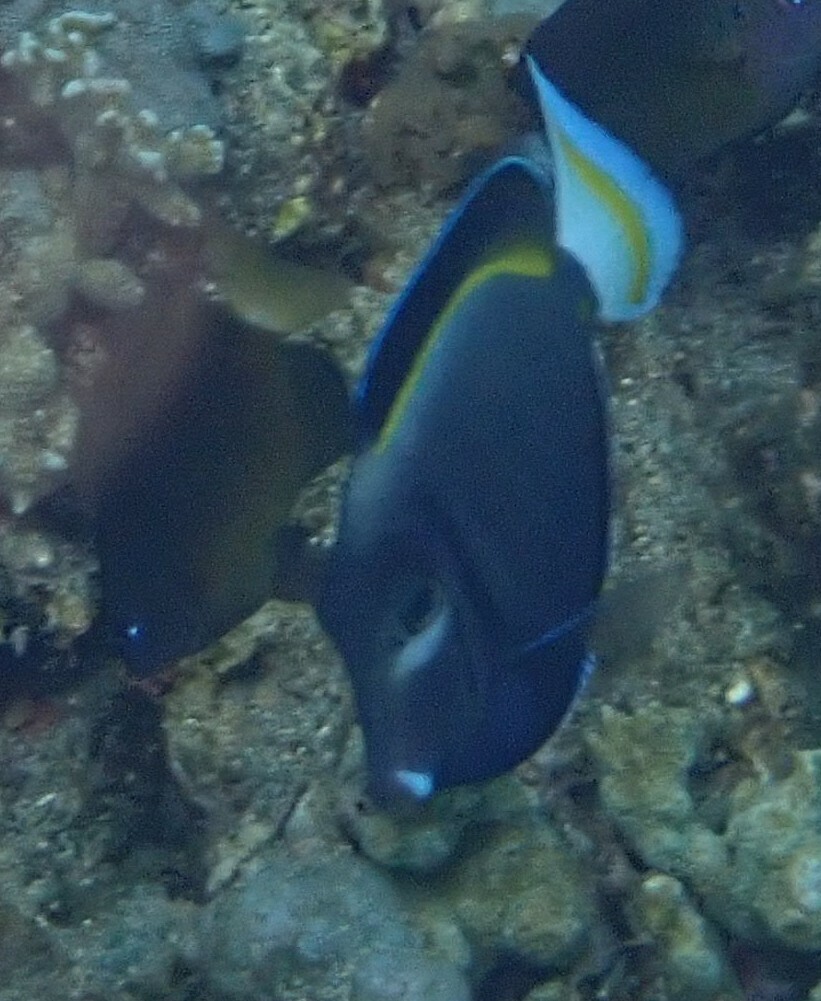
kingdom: Animalia
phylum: Chordata
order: Perciformes
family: Acanthuridae
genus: Acanthurus
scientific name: Acanthurus nigricans
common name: Whitecheek surgeonfish
